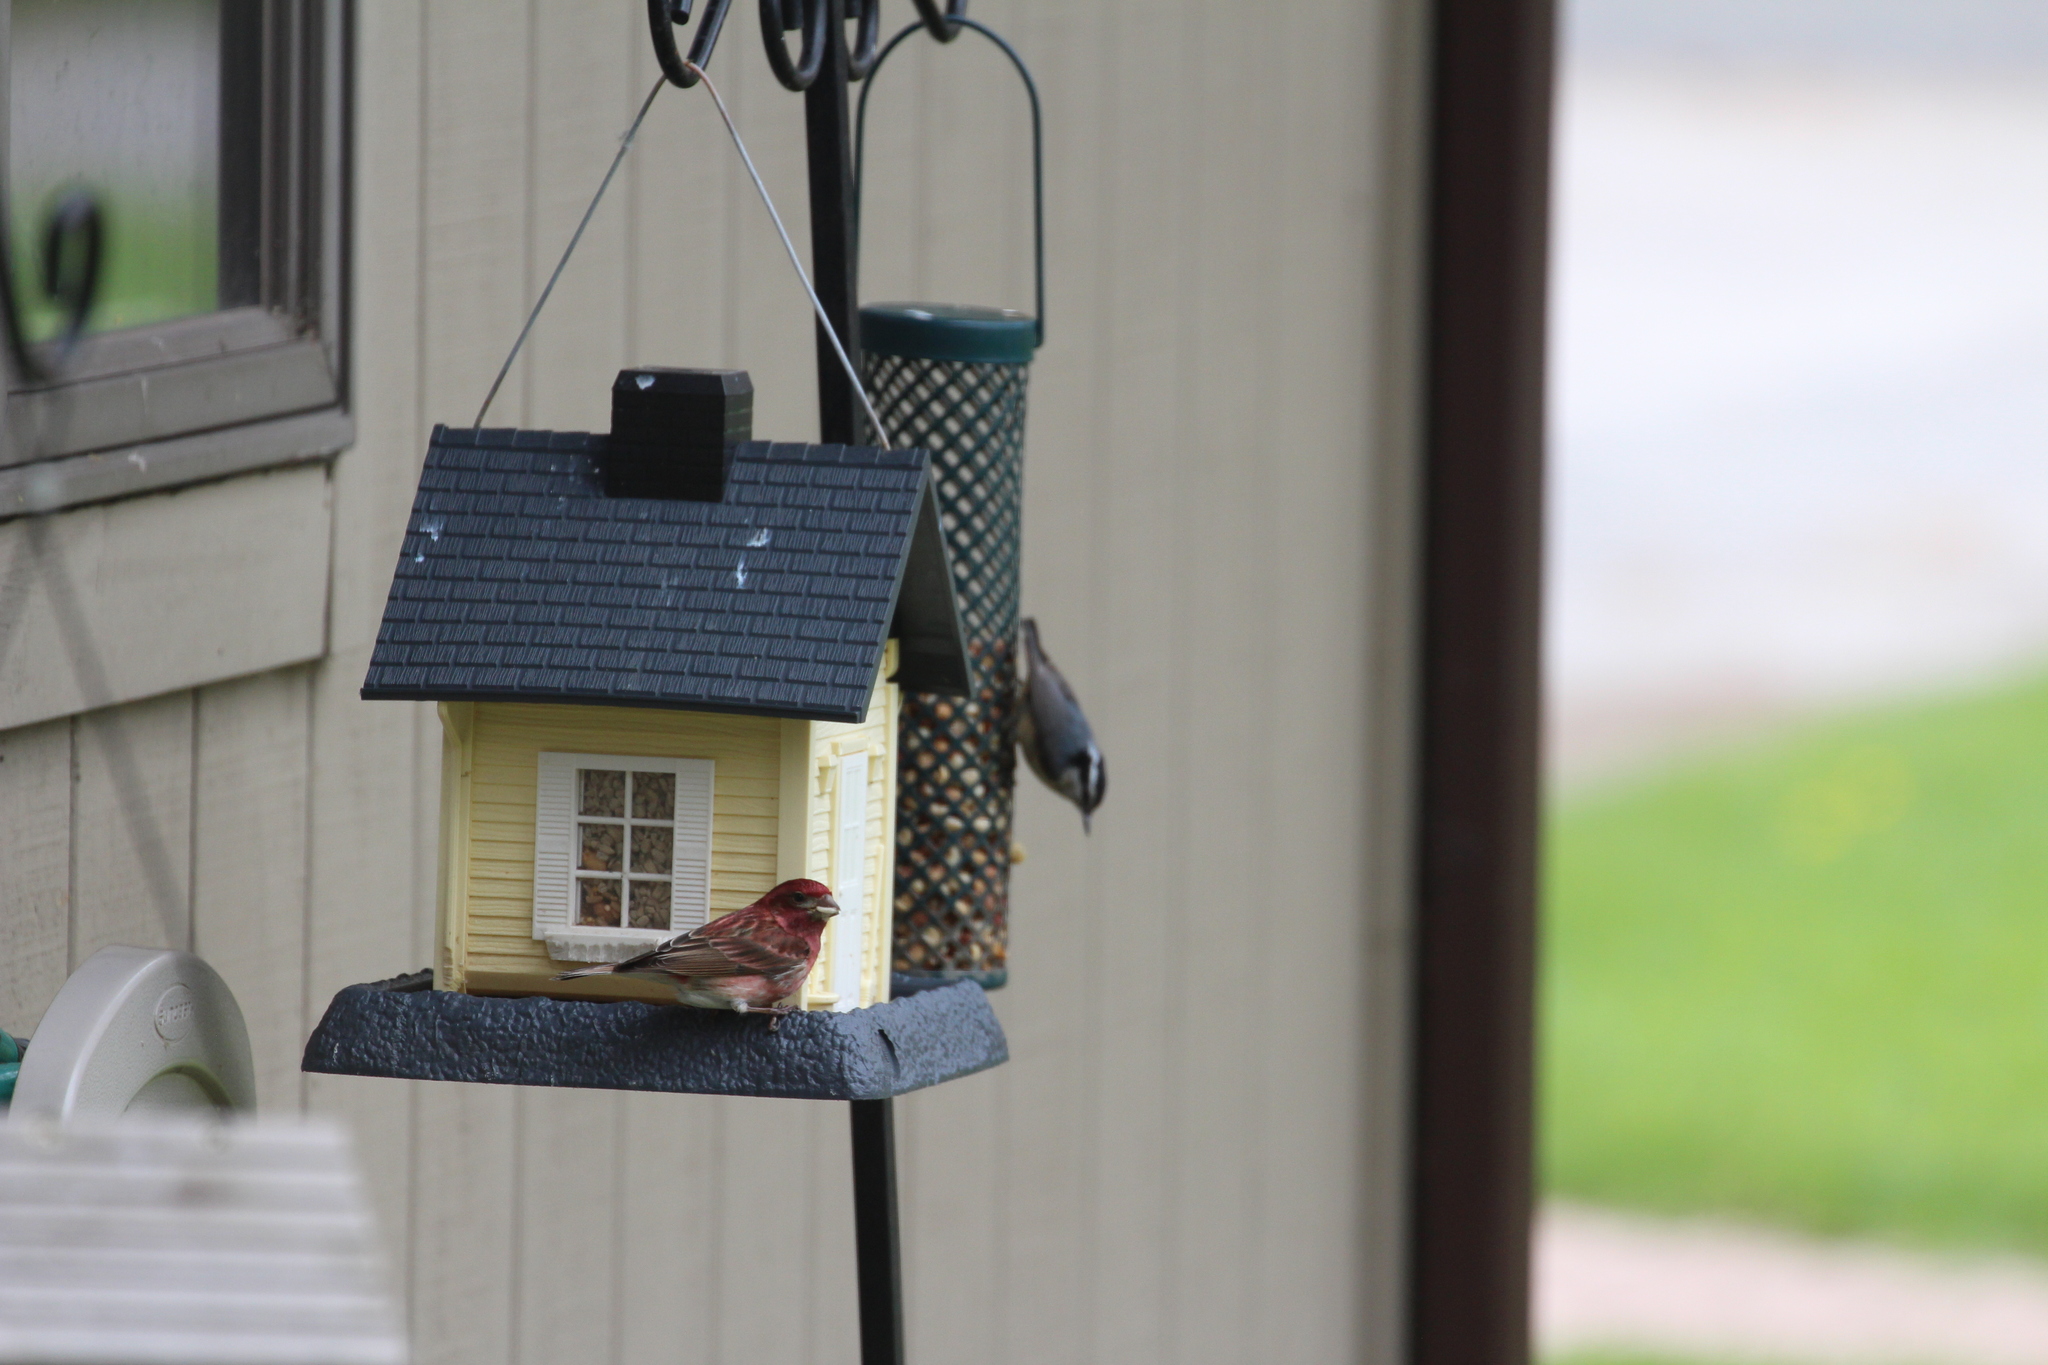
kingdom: Animalia
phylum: Chordata
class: Aves
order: Passeriformes
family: Sittidae
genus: Sitta
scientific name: Sitta canadensis
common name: Red-breasted nuthatch
